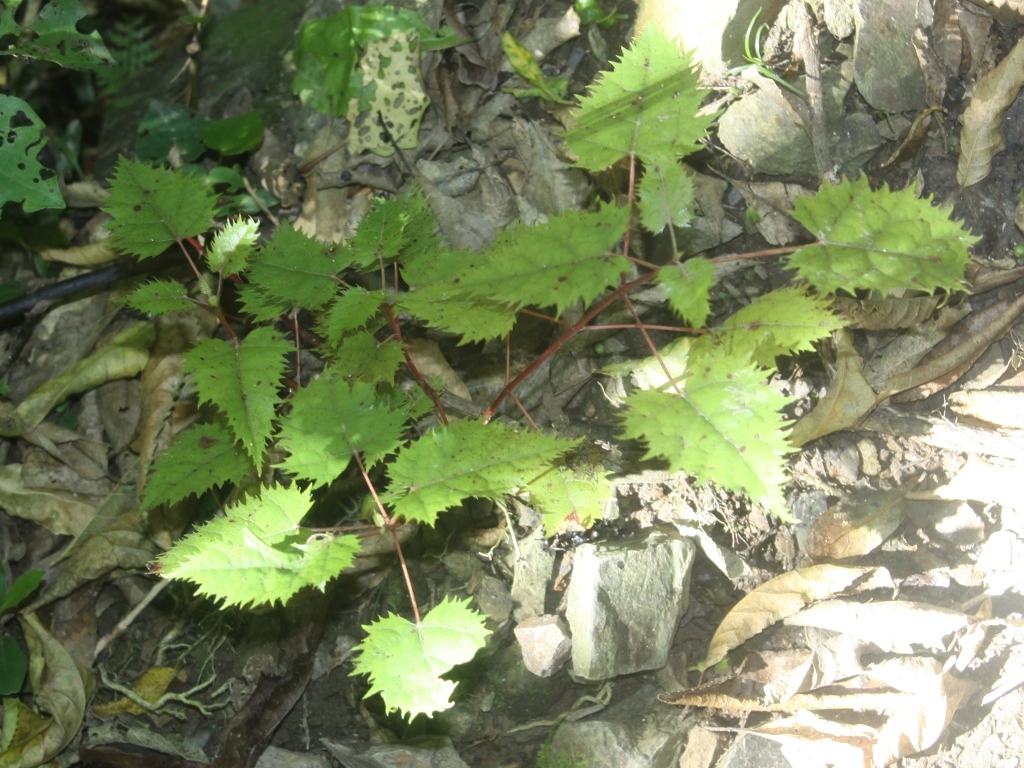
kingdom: Plantae
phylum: Tracheophyta
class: Magnoliopsida
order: Oxalidales
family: Elaeocarpaceae
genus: Aristotelia
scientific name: Aristotelia serrata
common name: New zealand wineberry
